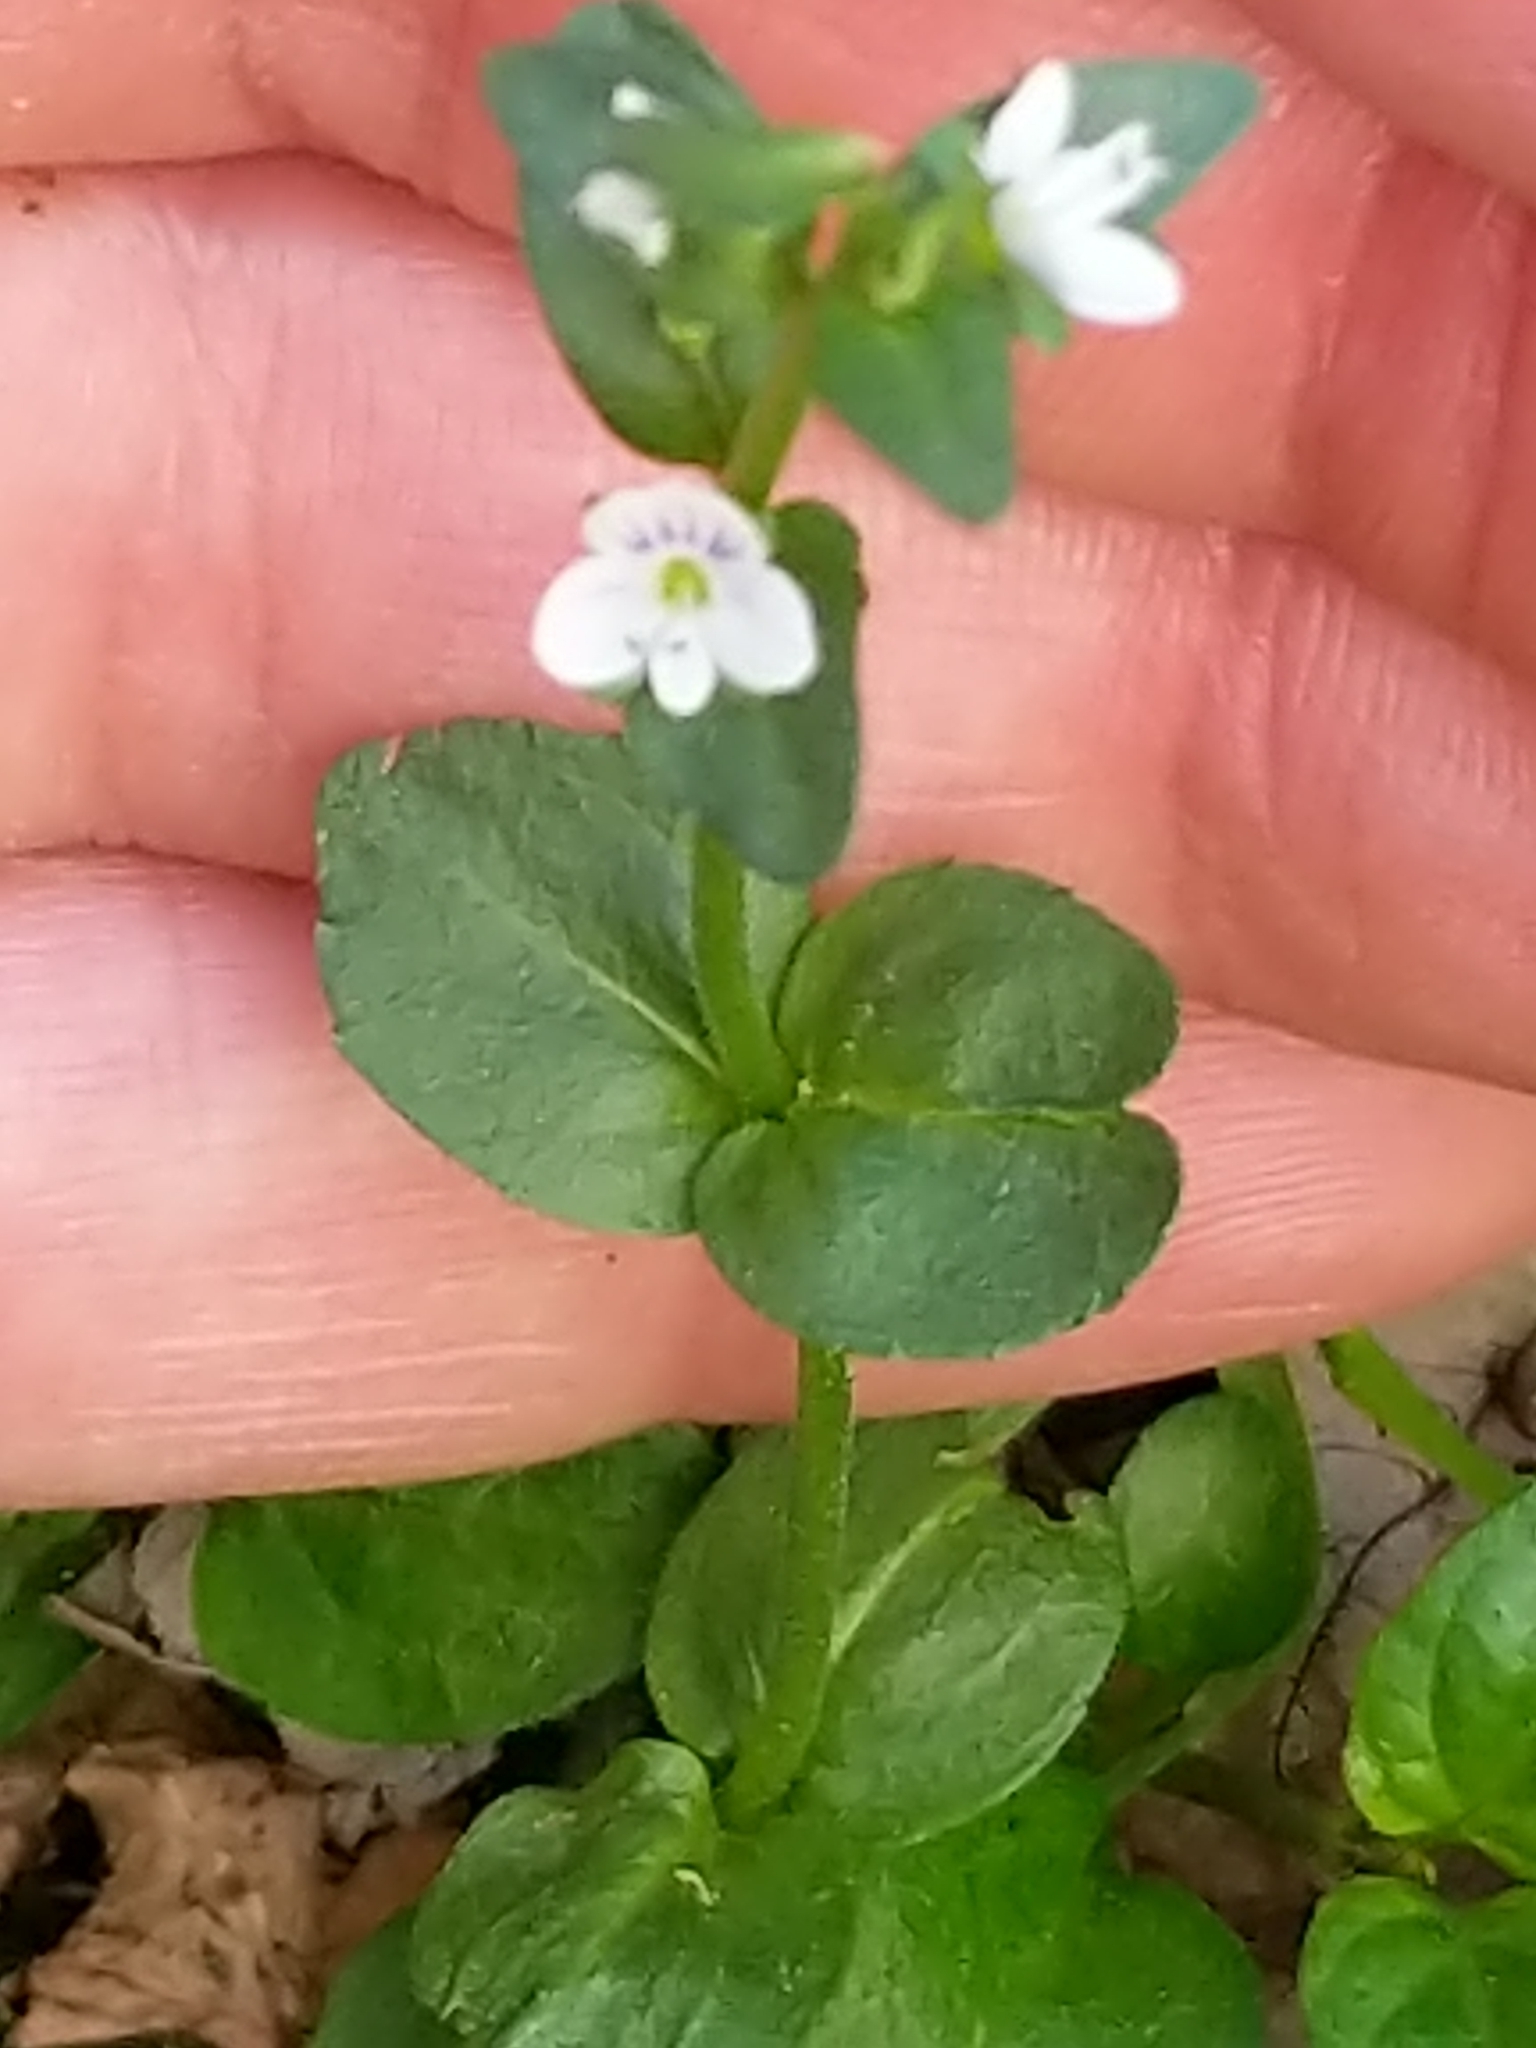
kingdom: Plantae
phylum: Tracheophyta
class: Magnoliopsida
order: Lamiales
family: Plantaginaceae
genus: Veronica
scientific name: Veronica serpyllifolia
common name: Thyme-leaved speedwell
